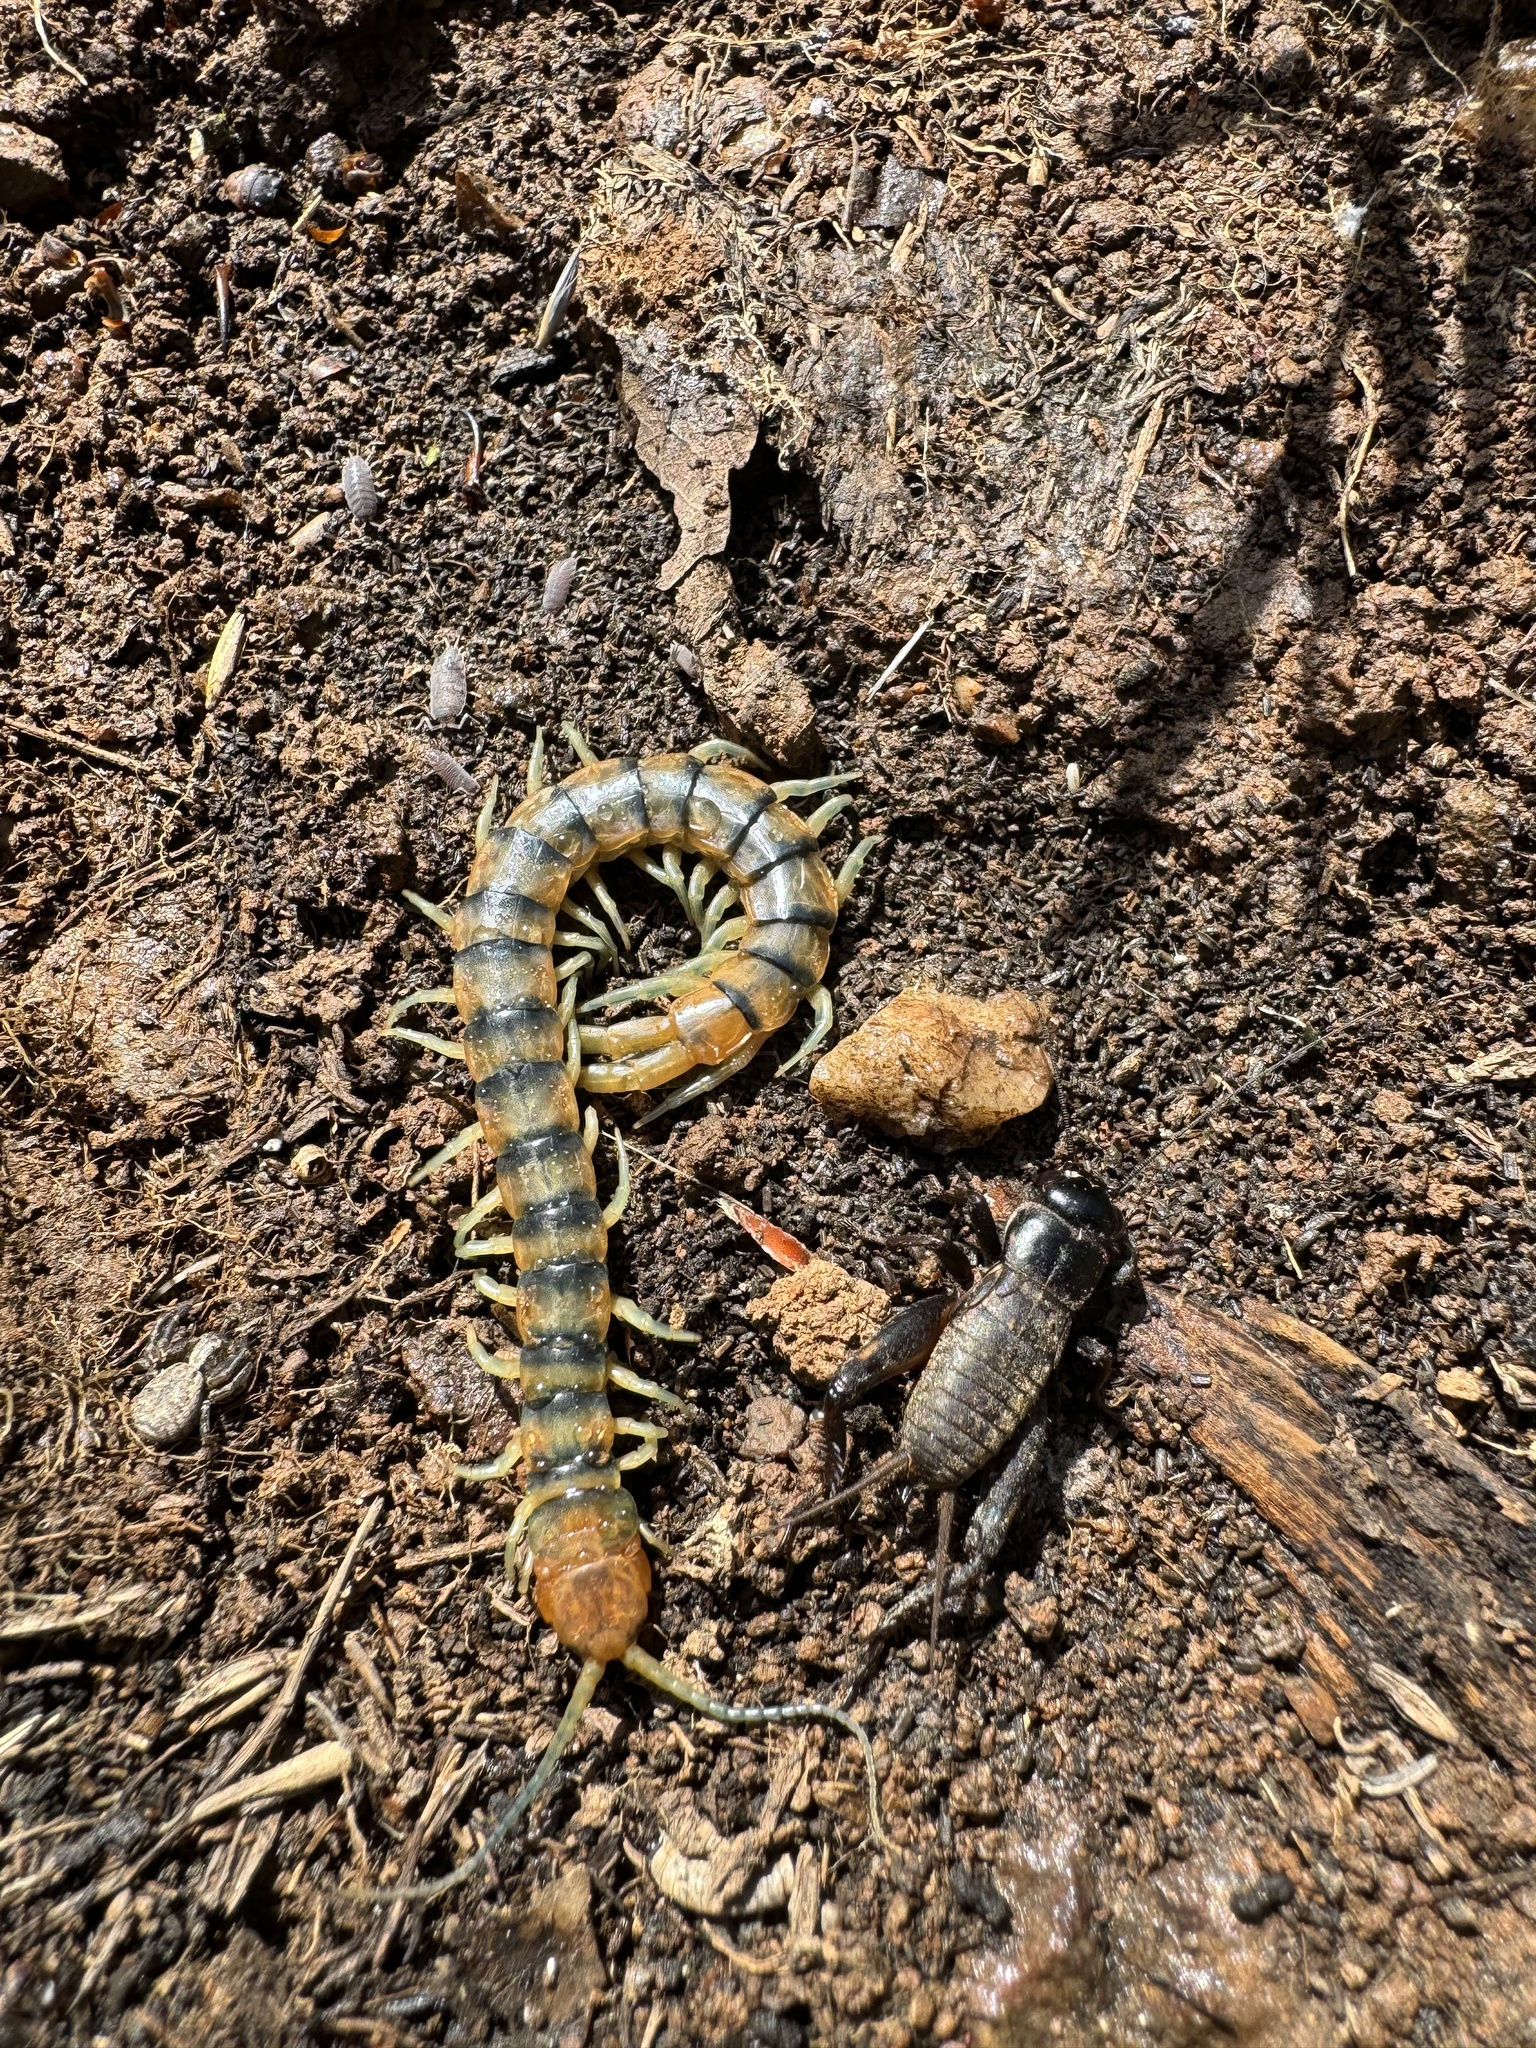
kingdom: Animalia
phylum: Arthropoda
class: Chilopoda
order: Scolopendromorpha
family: Scolopendridae
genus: Scolopendra
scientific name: Scolopendra polymorpha
